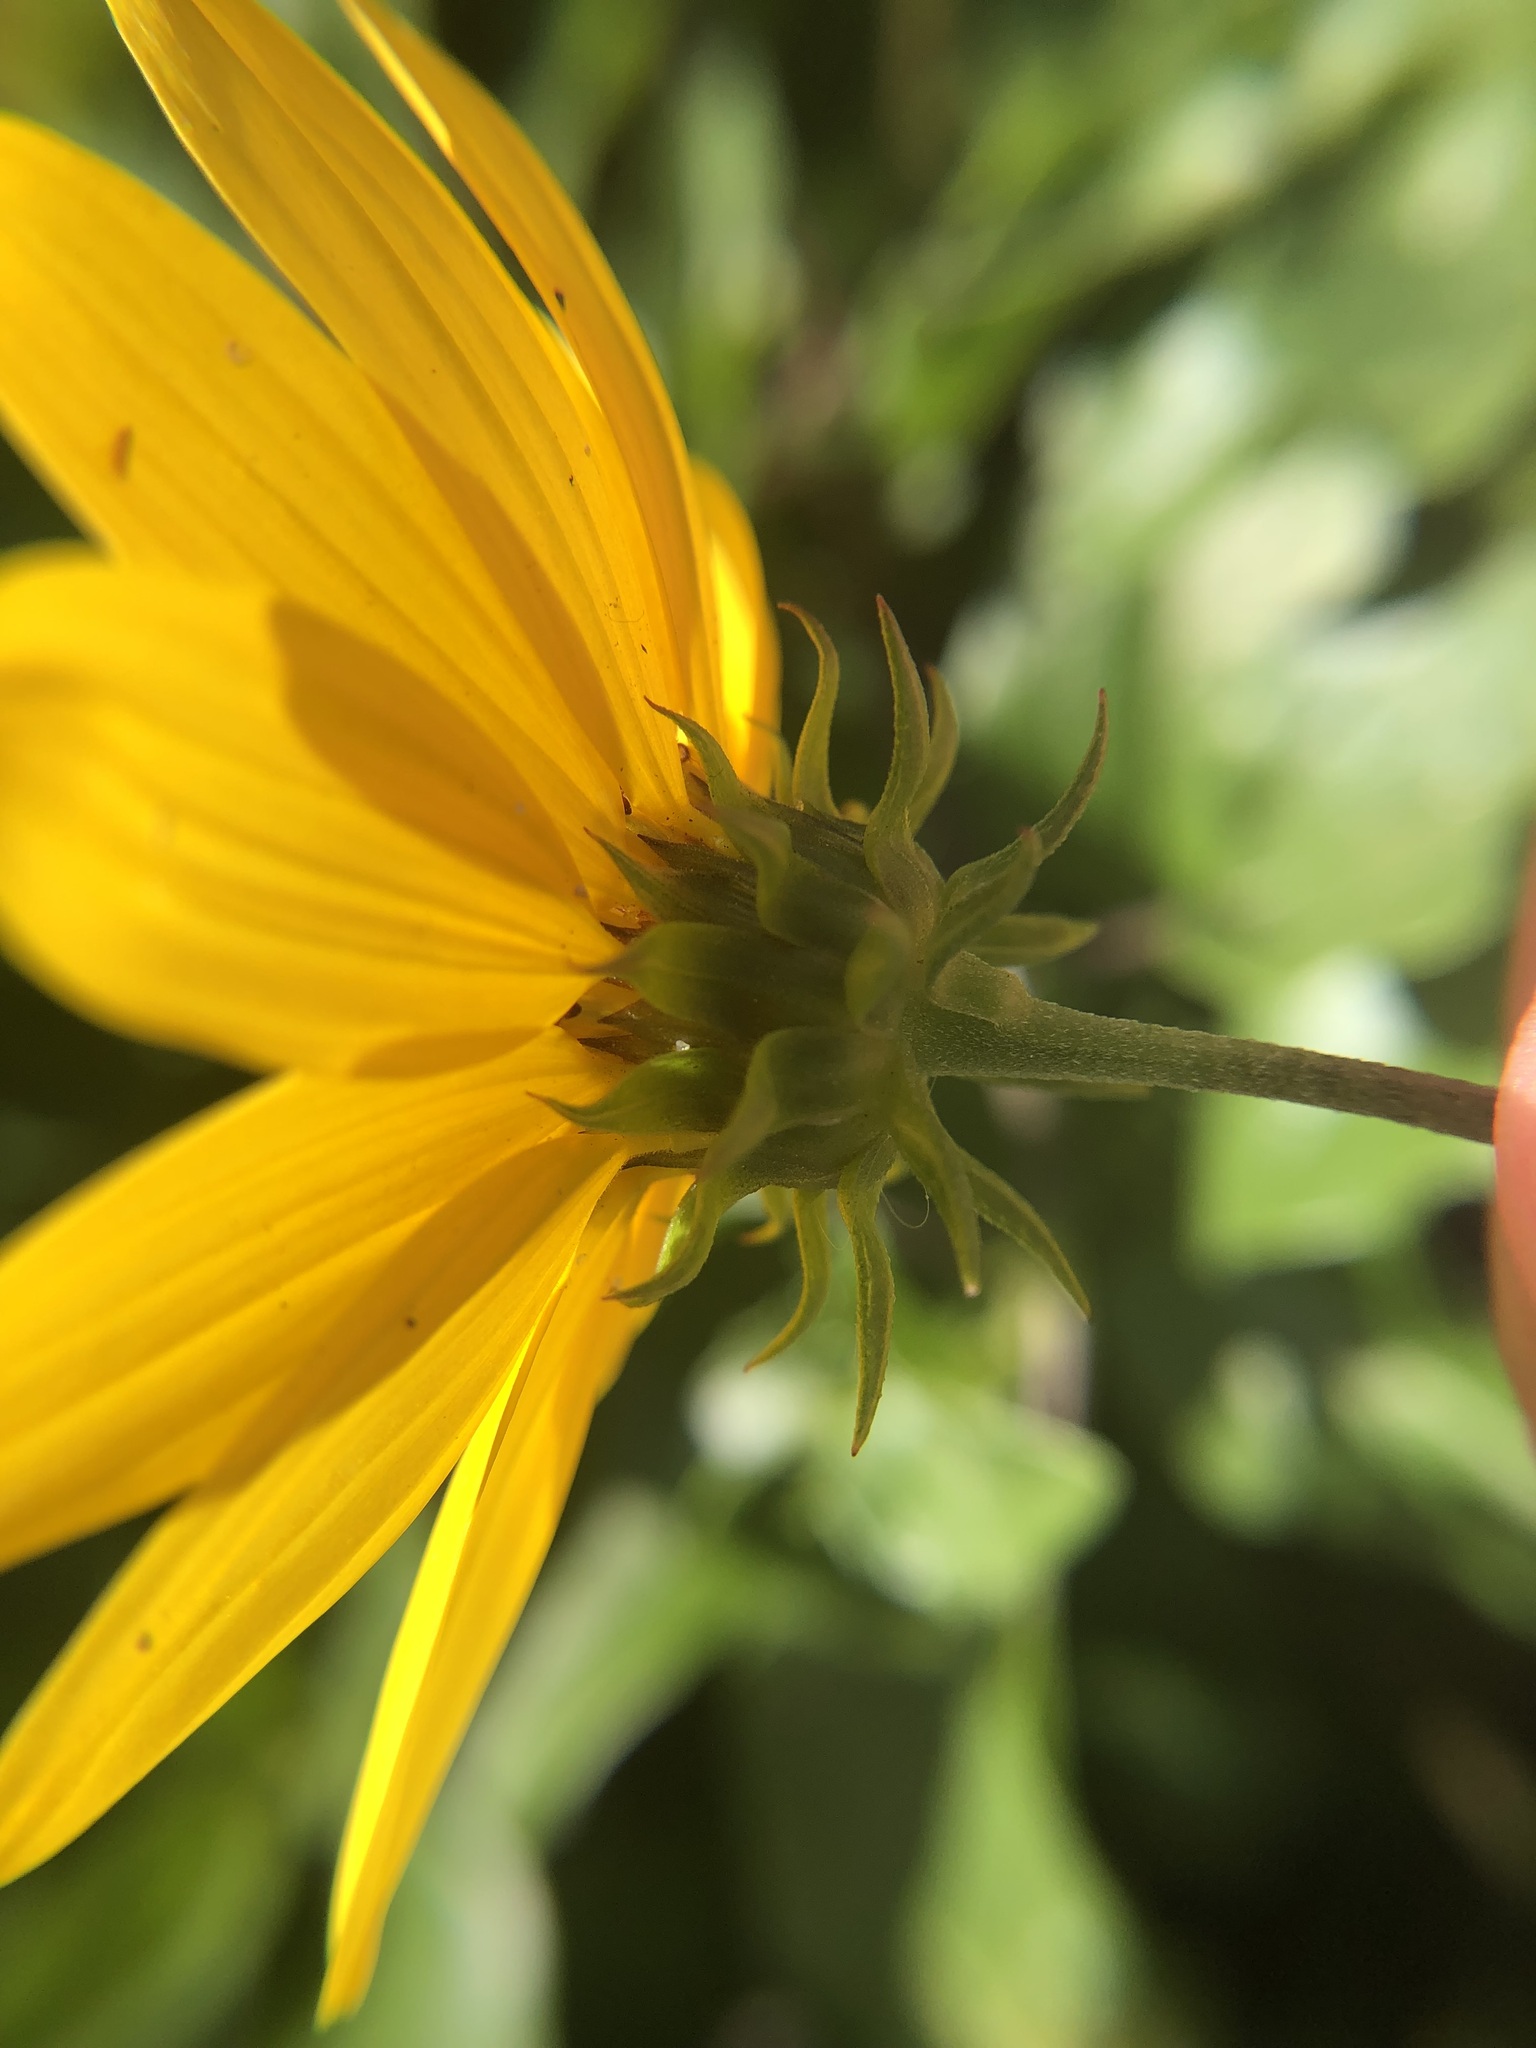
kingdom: Plantae
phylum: Tracheophyta
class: Magnoliopsida
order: Asterales
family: Asteraceae
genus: Helianthus
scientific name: Helianthus debilis
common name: Weak sunflower
